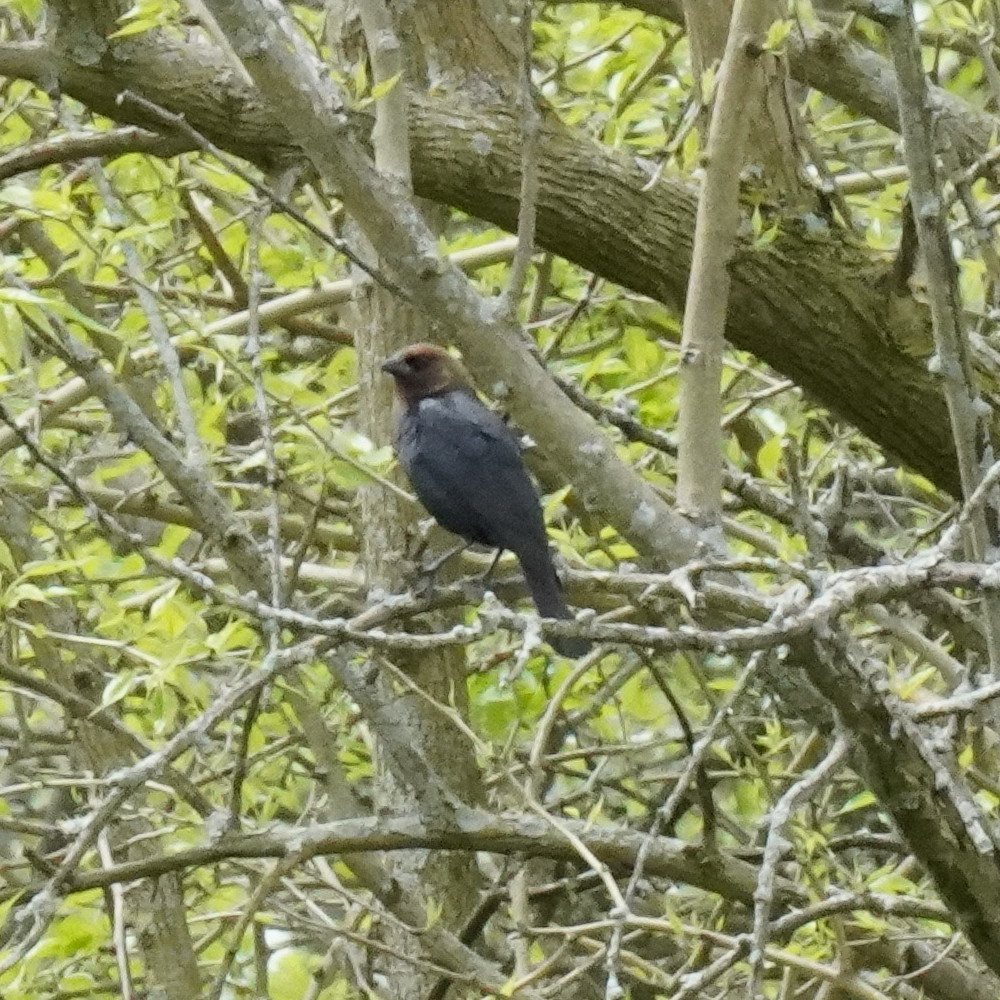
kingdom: Animalia
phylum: Chordata
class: Aves
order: Passeriformes
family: Icteridae
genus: Molothrus
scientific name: Molothrus ater
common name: Brown-headed cowbird
